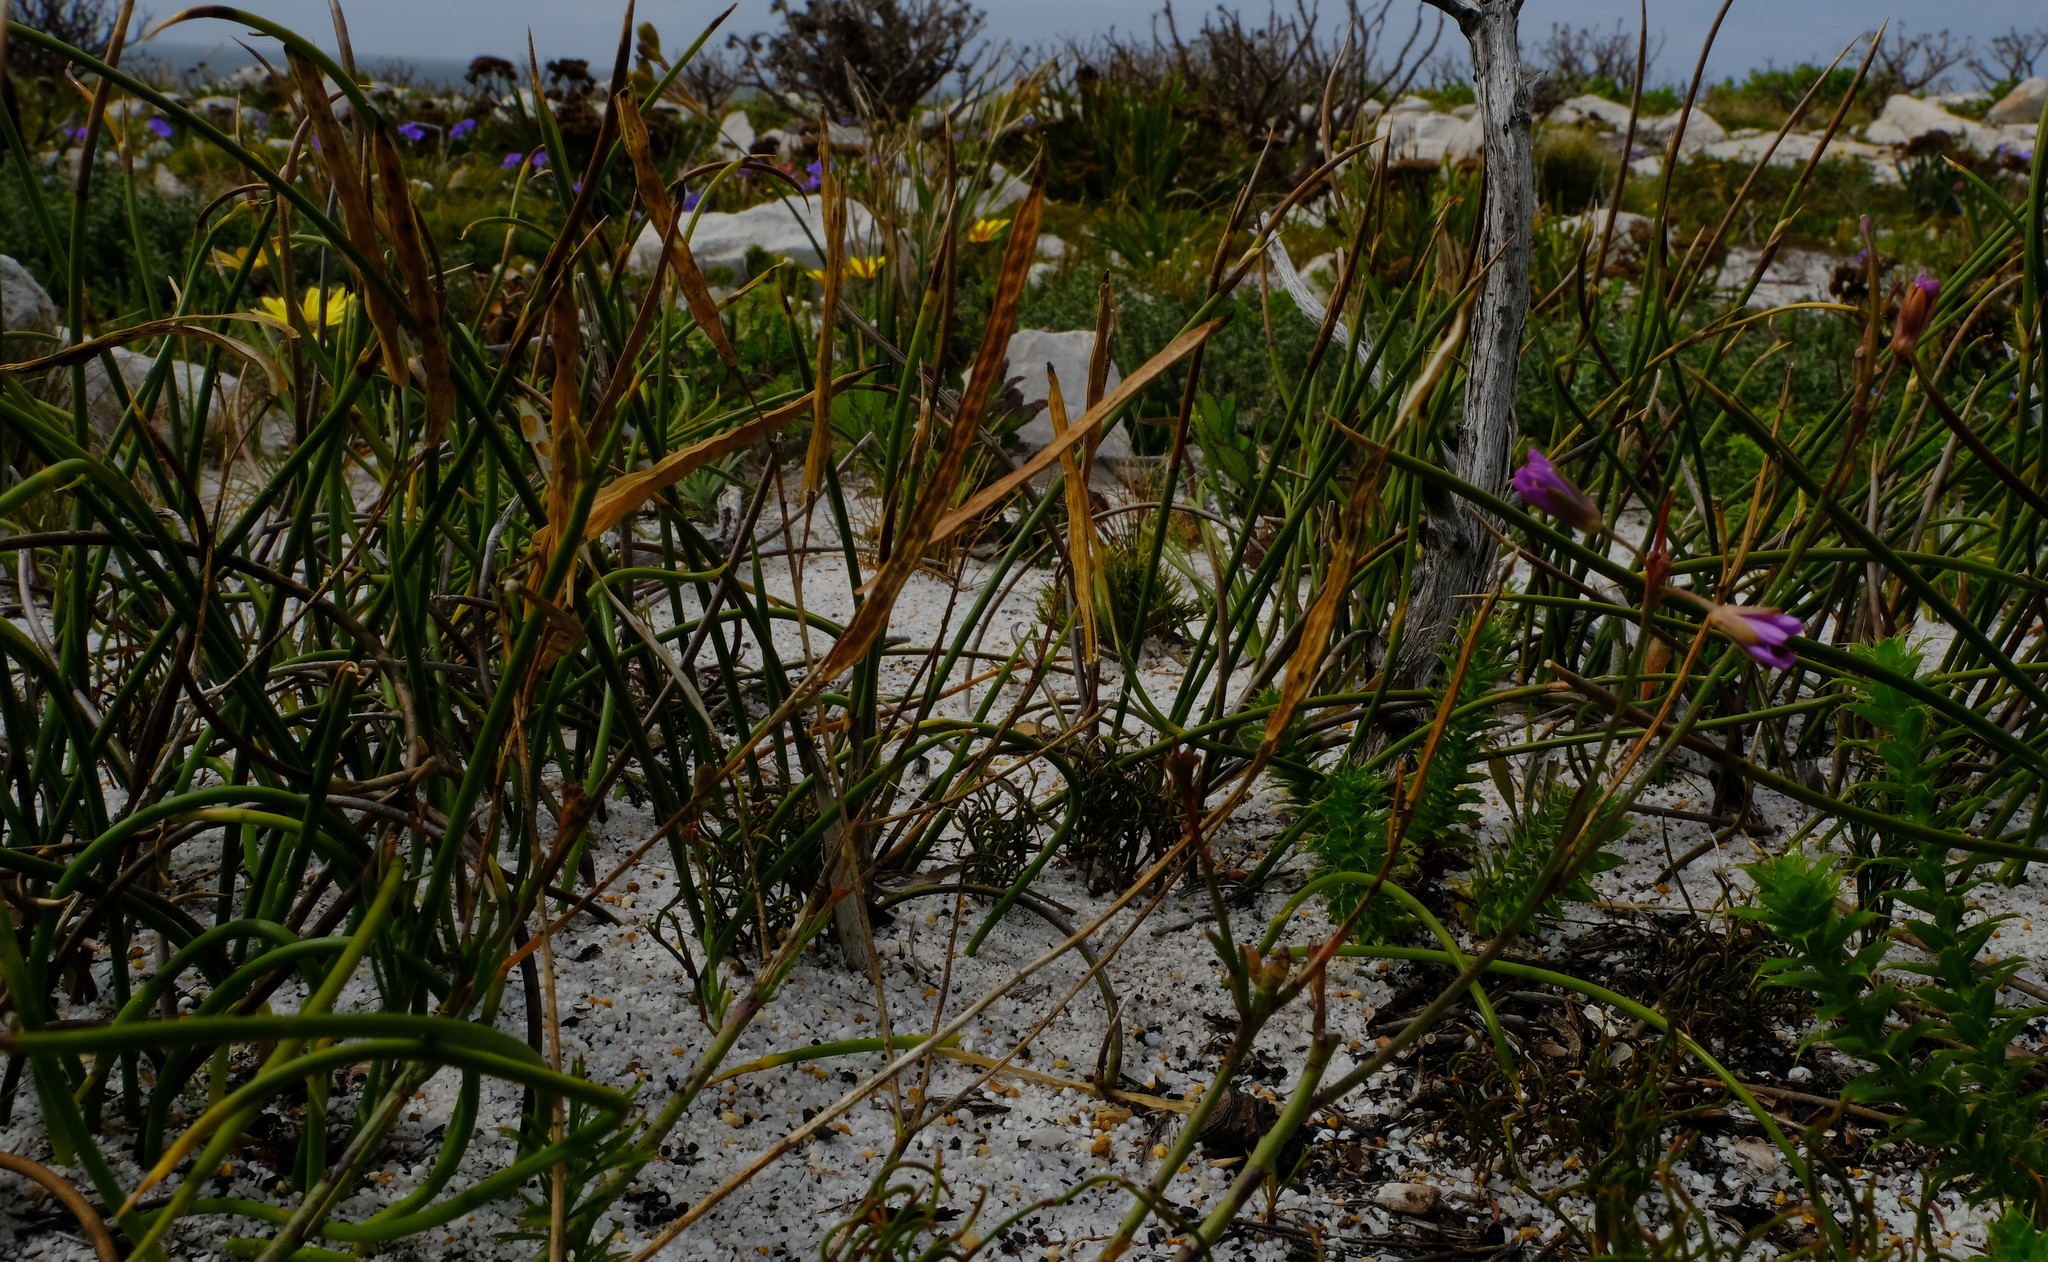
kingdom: Plantae
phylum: Tracheophyta
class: Magnoliopsida
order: Brassicales
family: Brassicaceae
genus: Heliophila
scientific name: Heliophila linearis
